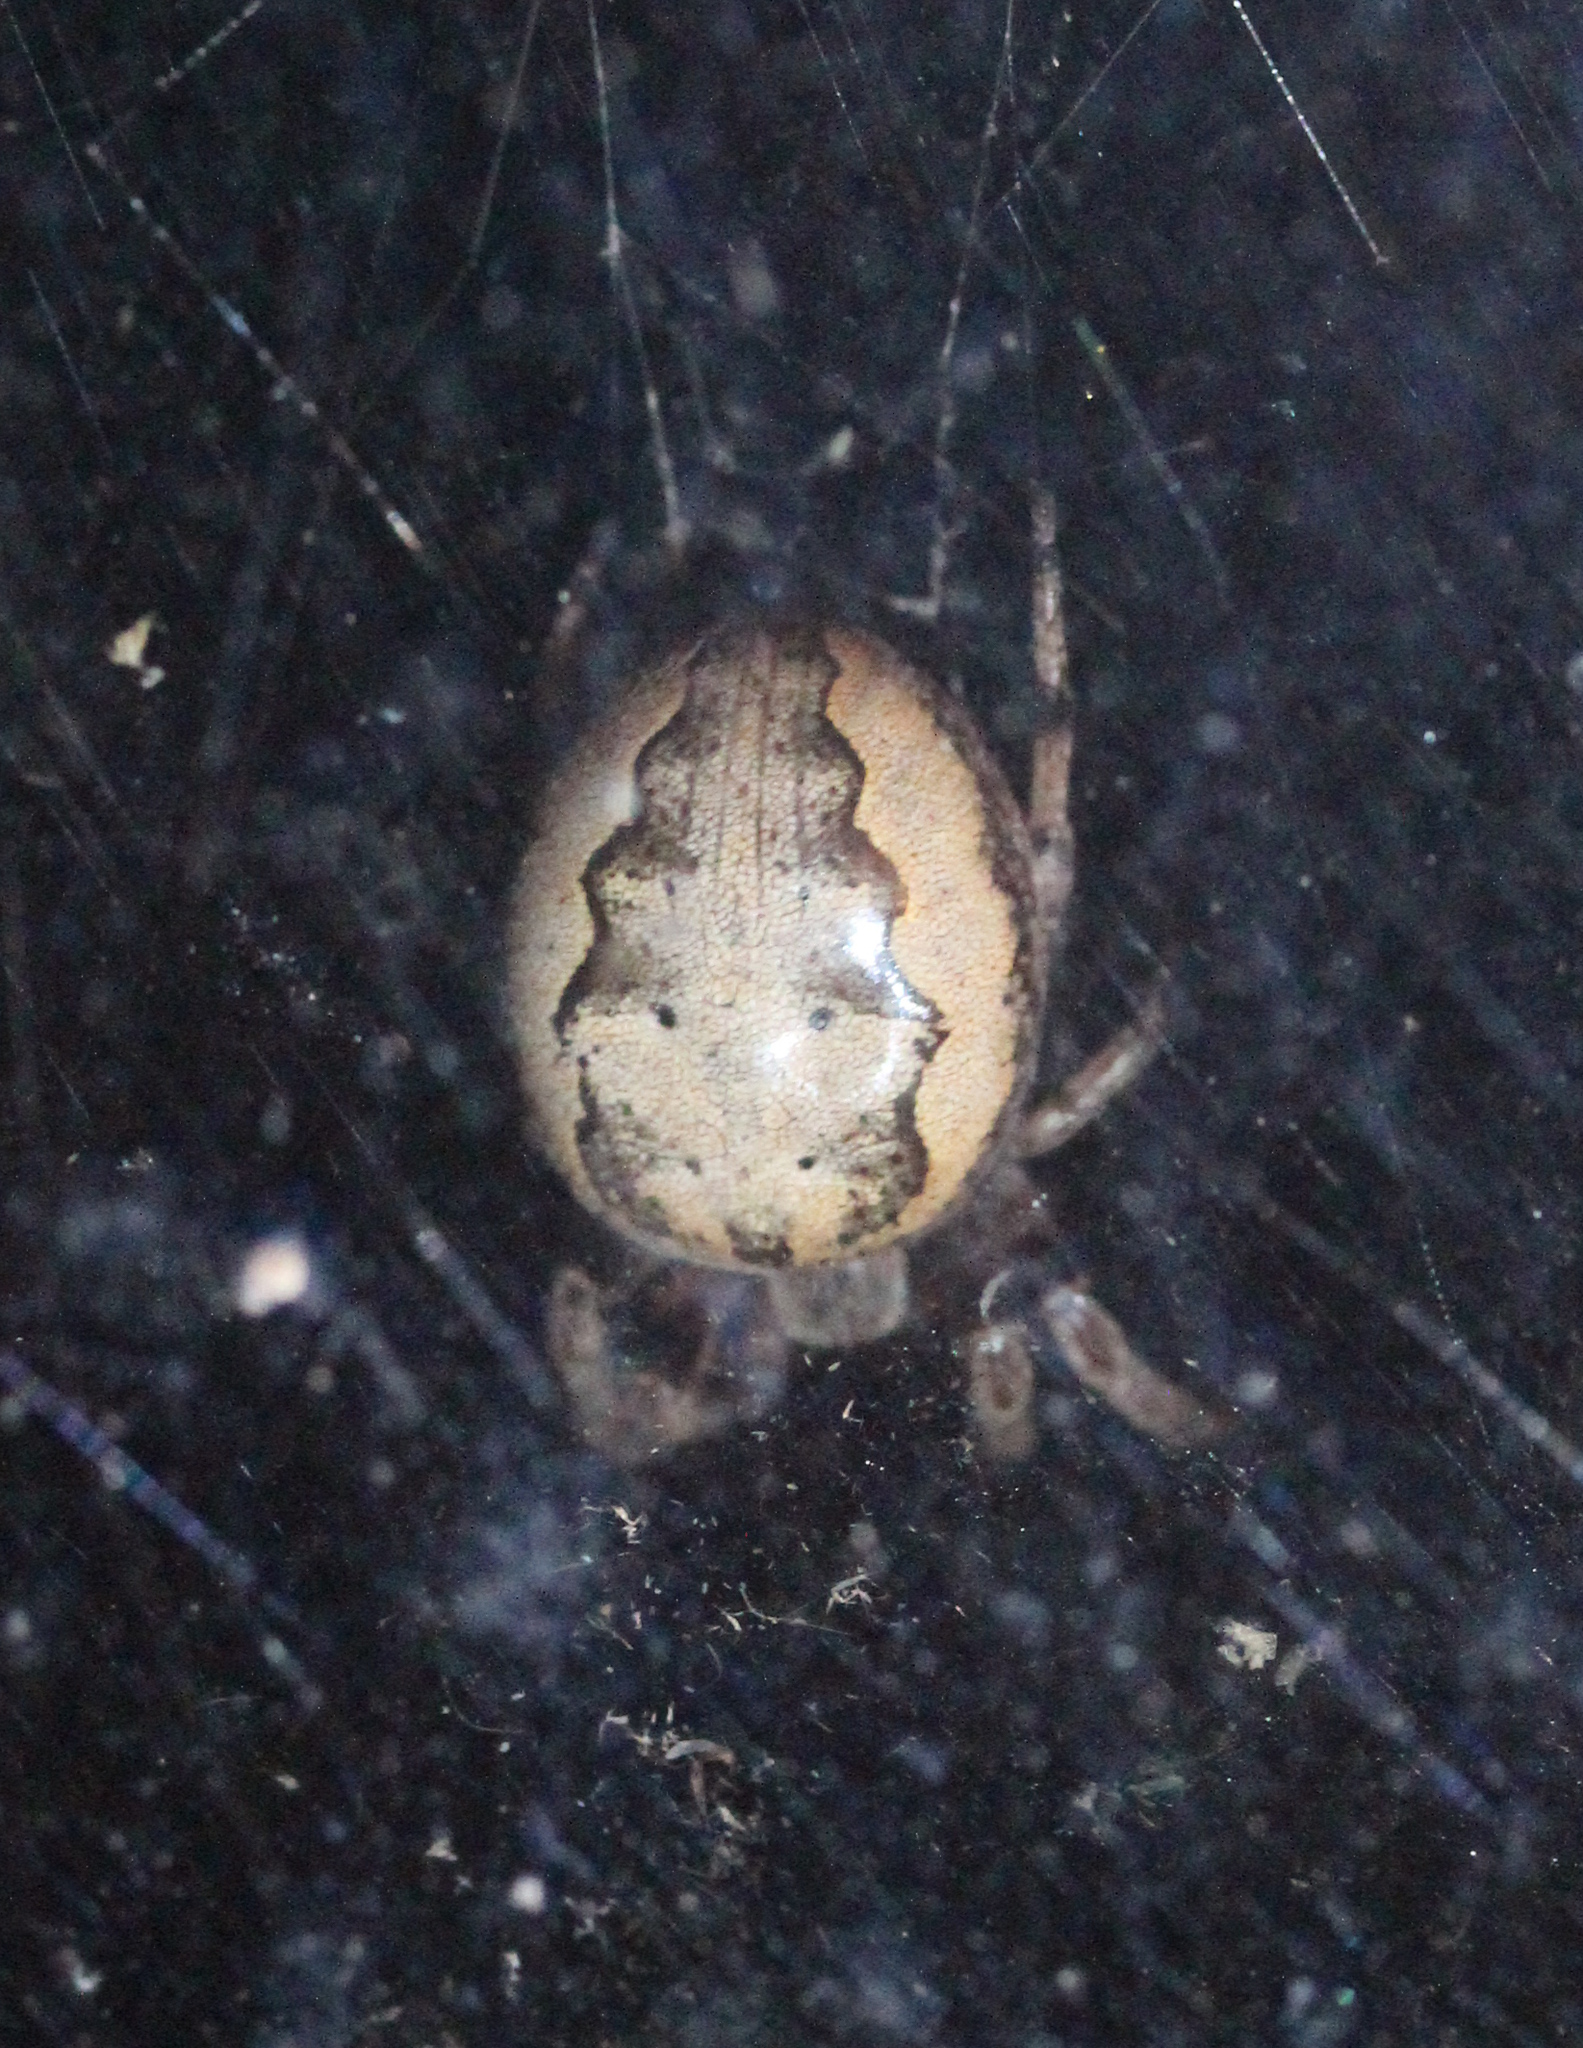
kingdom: Animalia
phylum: Arthropoda
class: Arachnida
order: Araneae
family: Araneidae
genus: Larinioides
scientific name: Larinioides cornutus
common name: Furrow orbweaver
